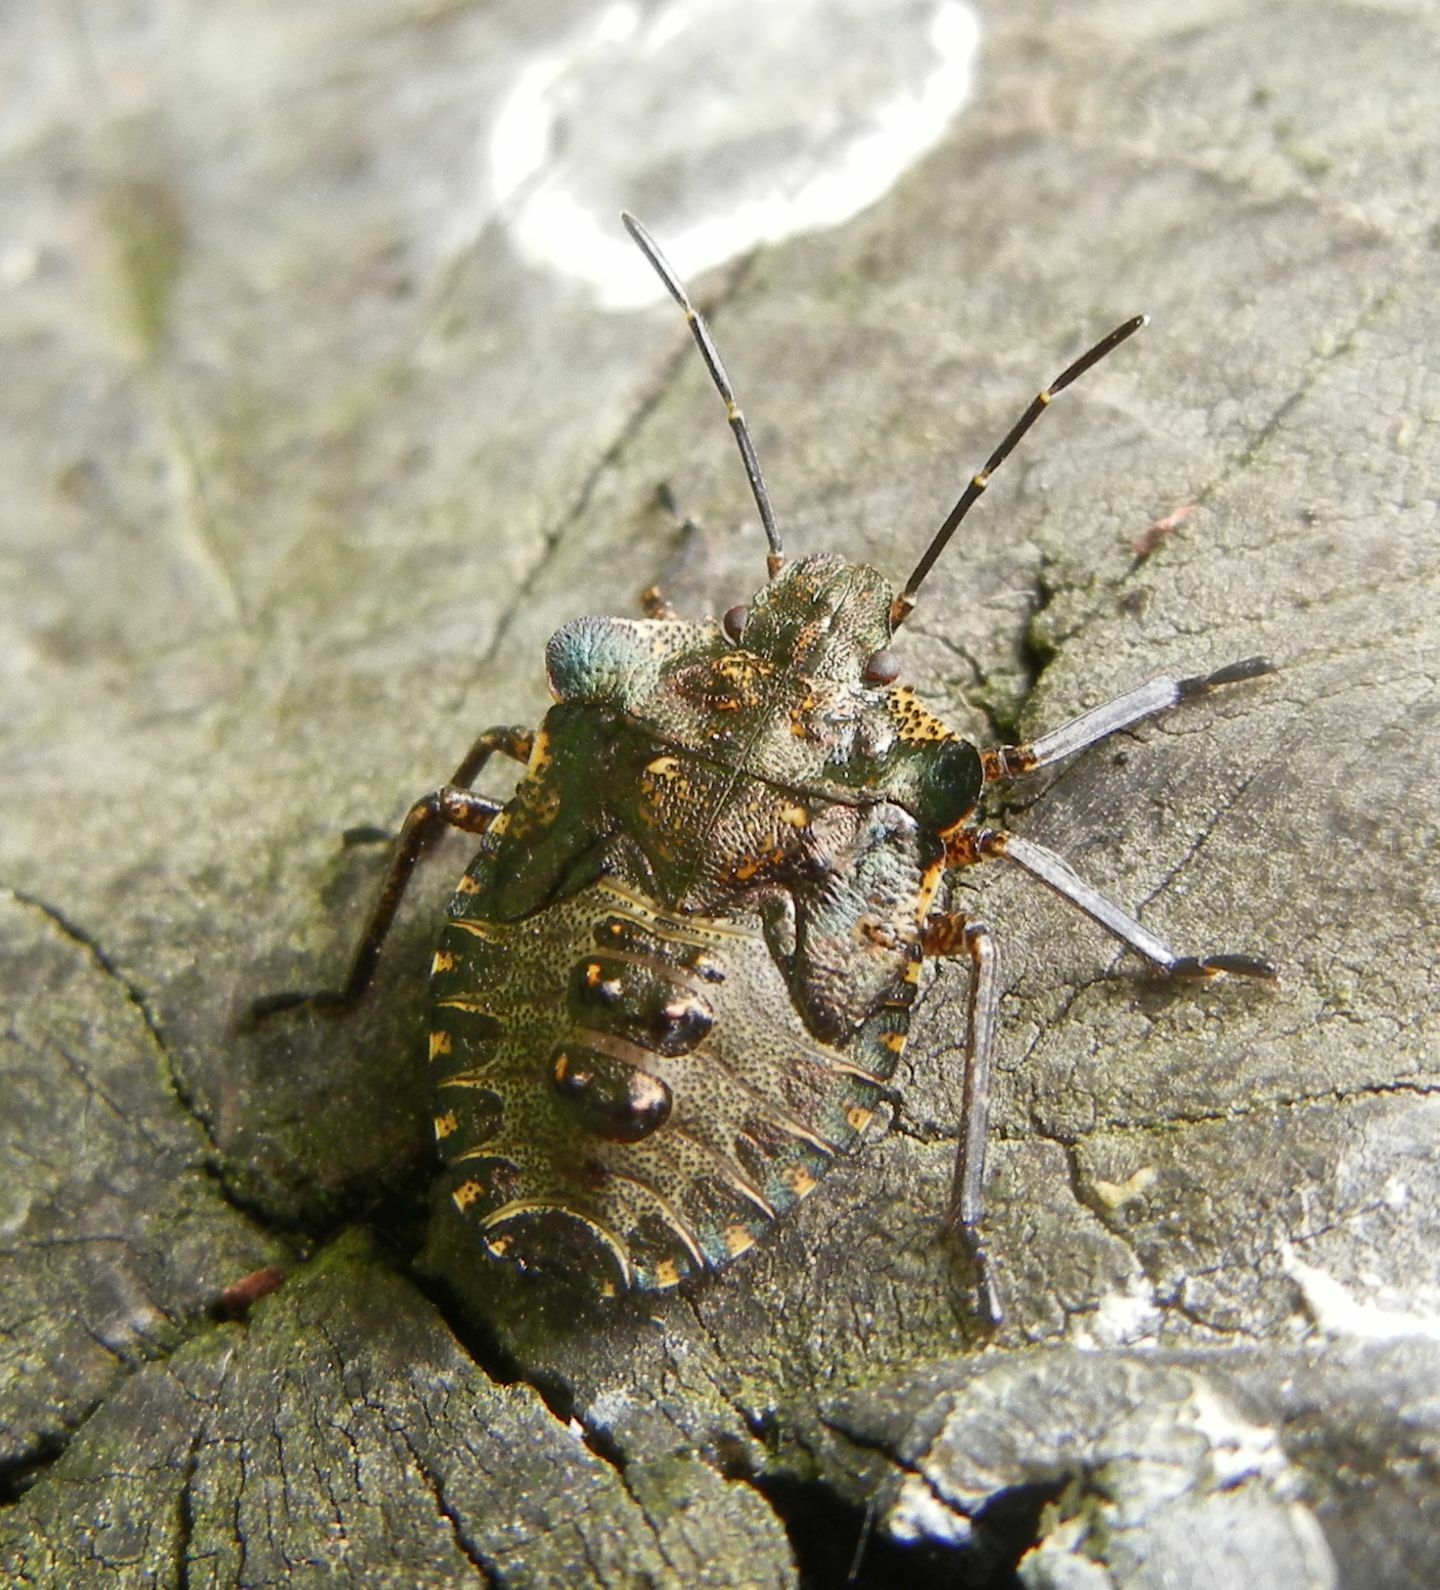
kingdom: Animalia
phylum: Arthropoda
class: Insecta
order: Hemiptera
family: Pentatomidae
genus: Pentatoma
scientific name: Pentatoma rufipes
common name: Forest bug
